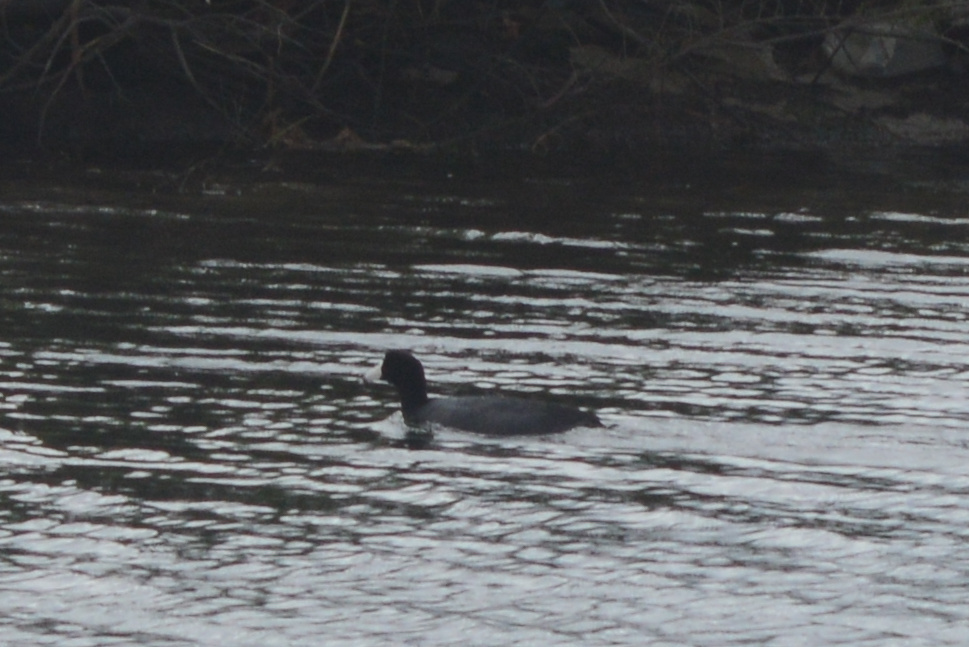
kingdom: Animalia
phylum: Chordata
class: Aves
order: Gruiformes
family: Rallidae
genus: Fulica
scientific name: Fulica americana
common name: American coot
